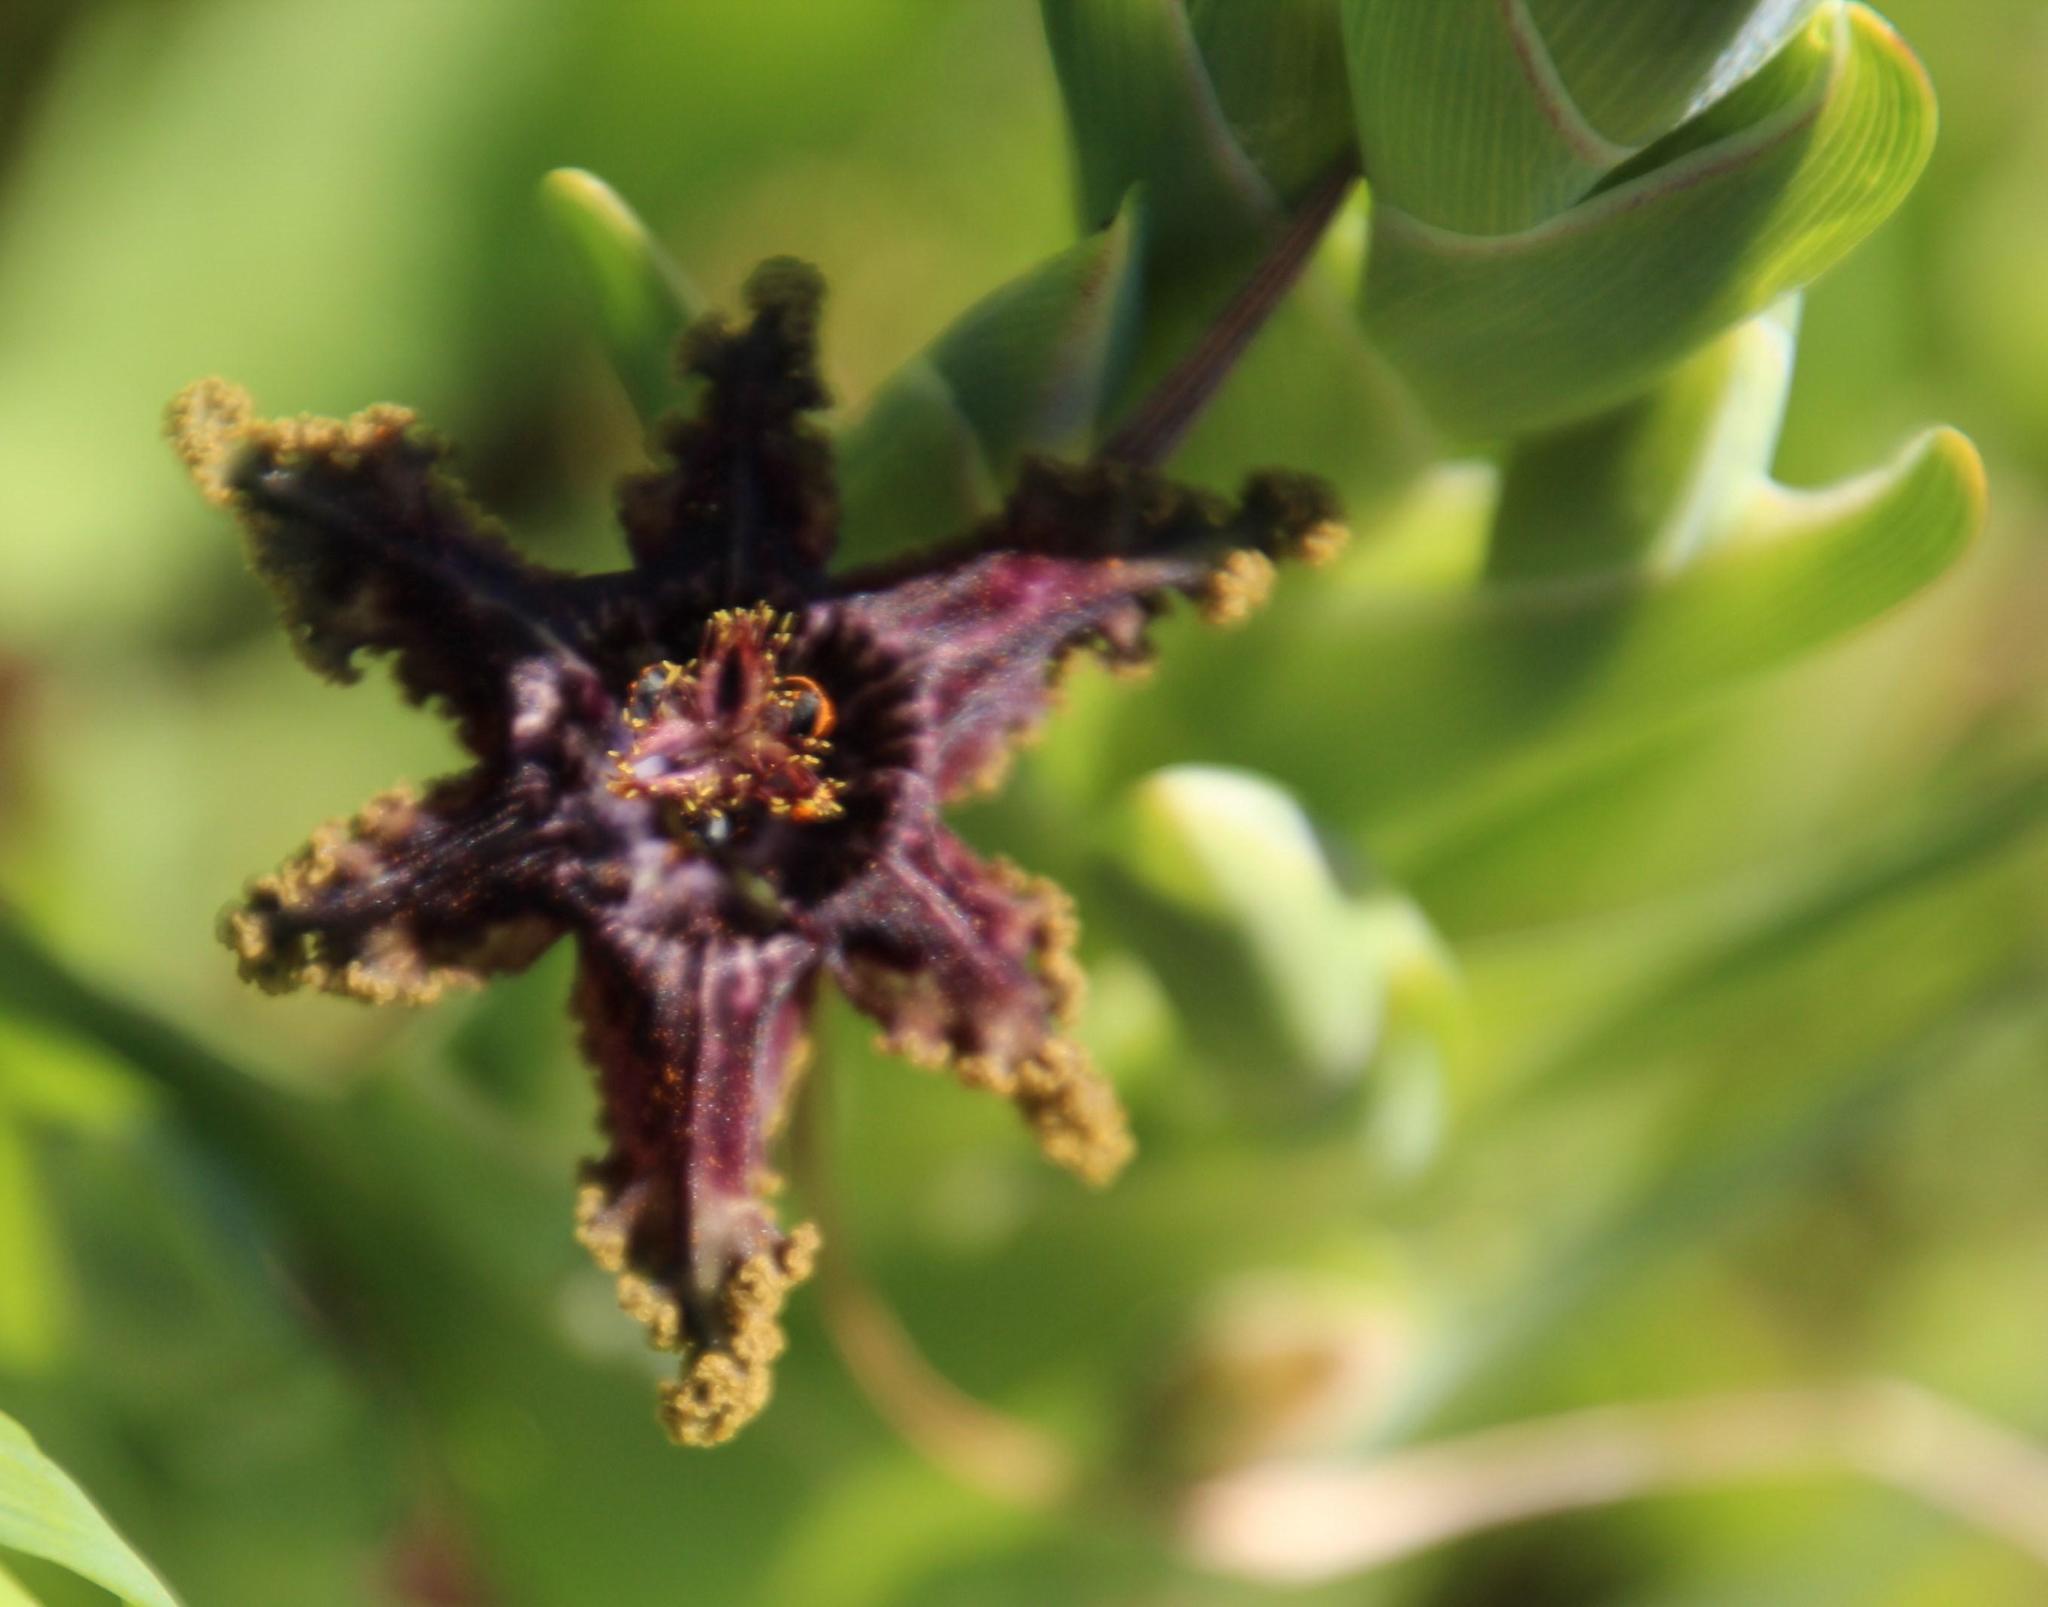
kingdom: Plantae
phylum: Tracheophyta
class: Liliopsida
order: Asparagales
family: Iridaceae
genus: Ferraria
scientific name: Ferraria crispa
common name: Black-flag
